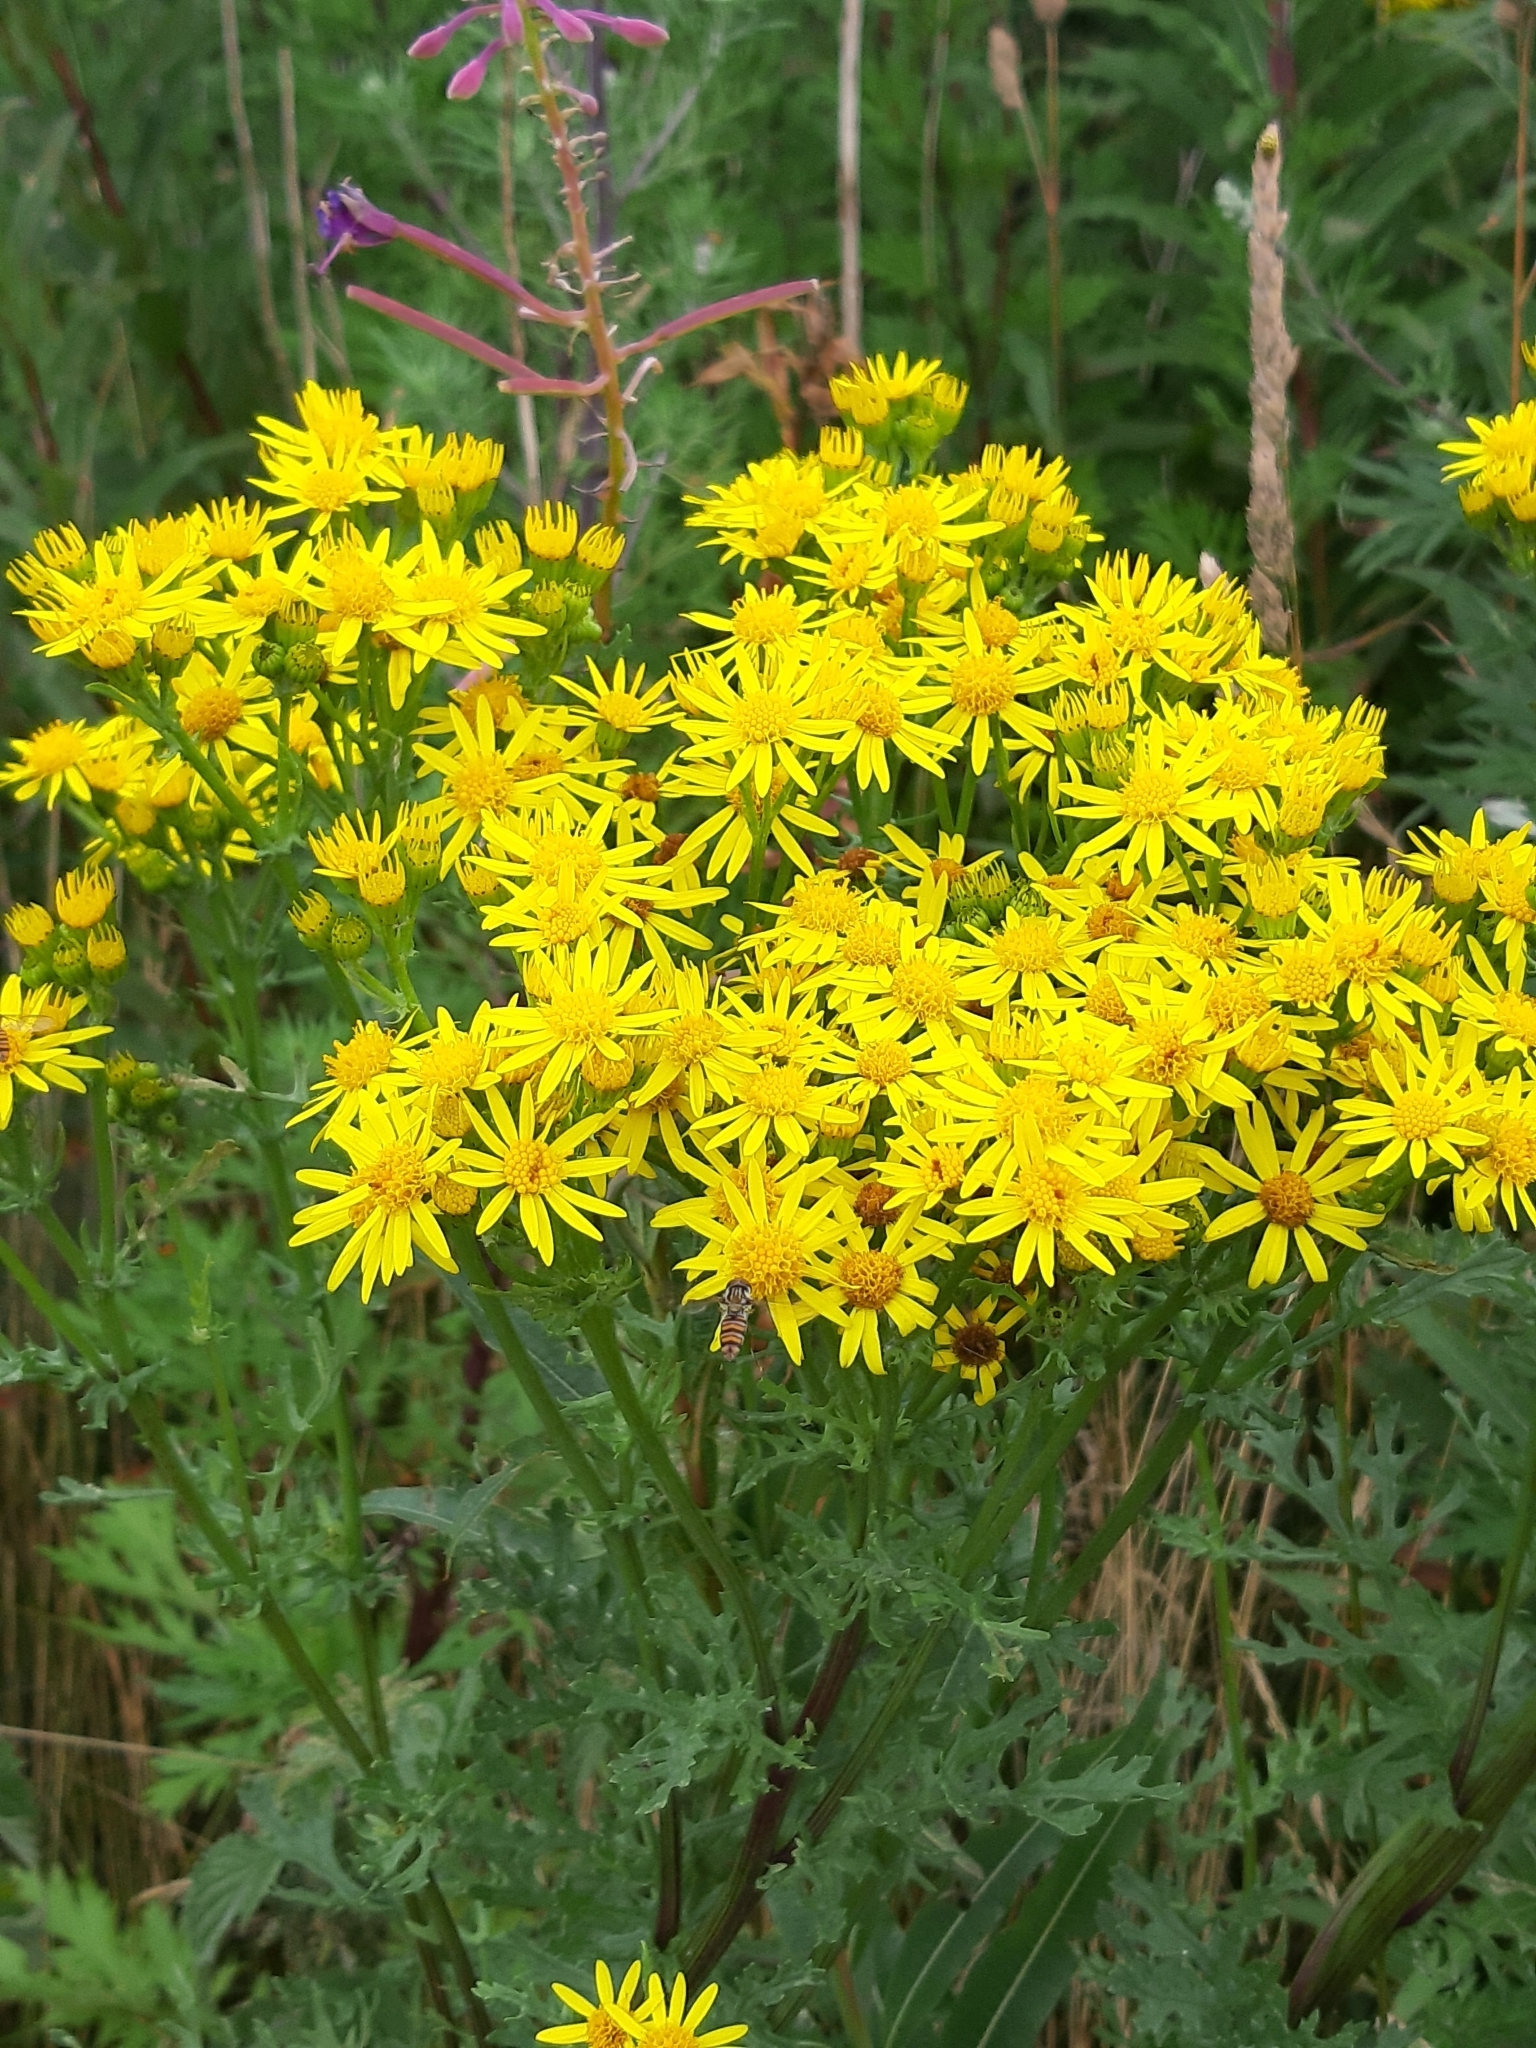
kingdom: Plantae
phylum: Tracheophyta
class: Magnoliopsida
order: Asterales
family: Asteraceae
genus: Jacobaea
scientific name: Jacobaea vulgaris
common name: Stinking willie
